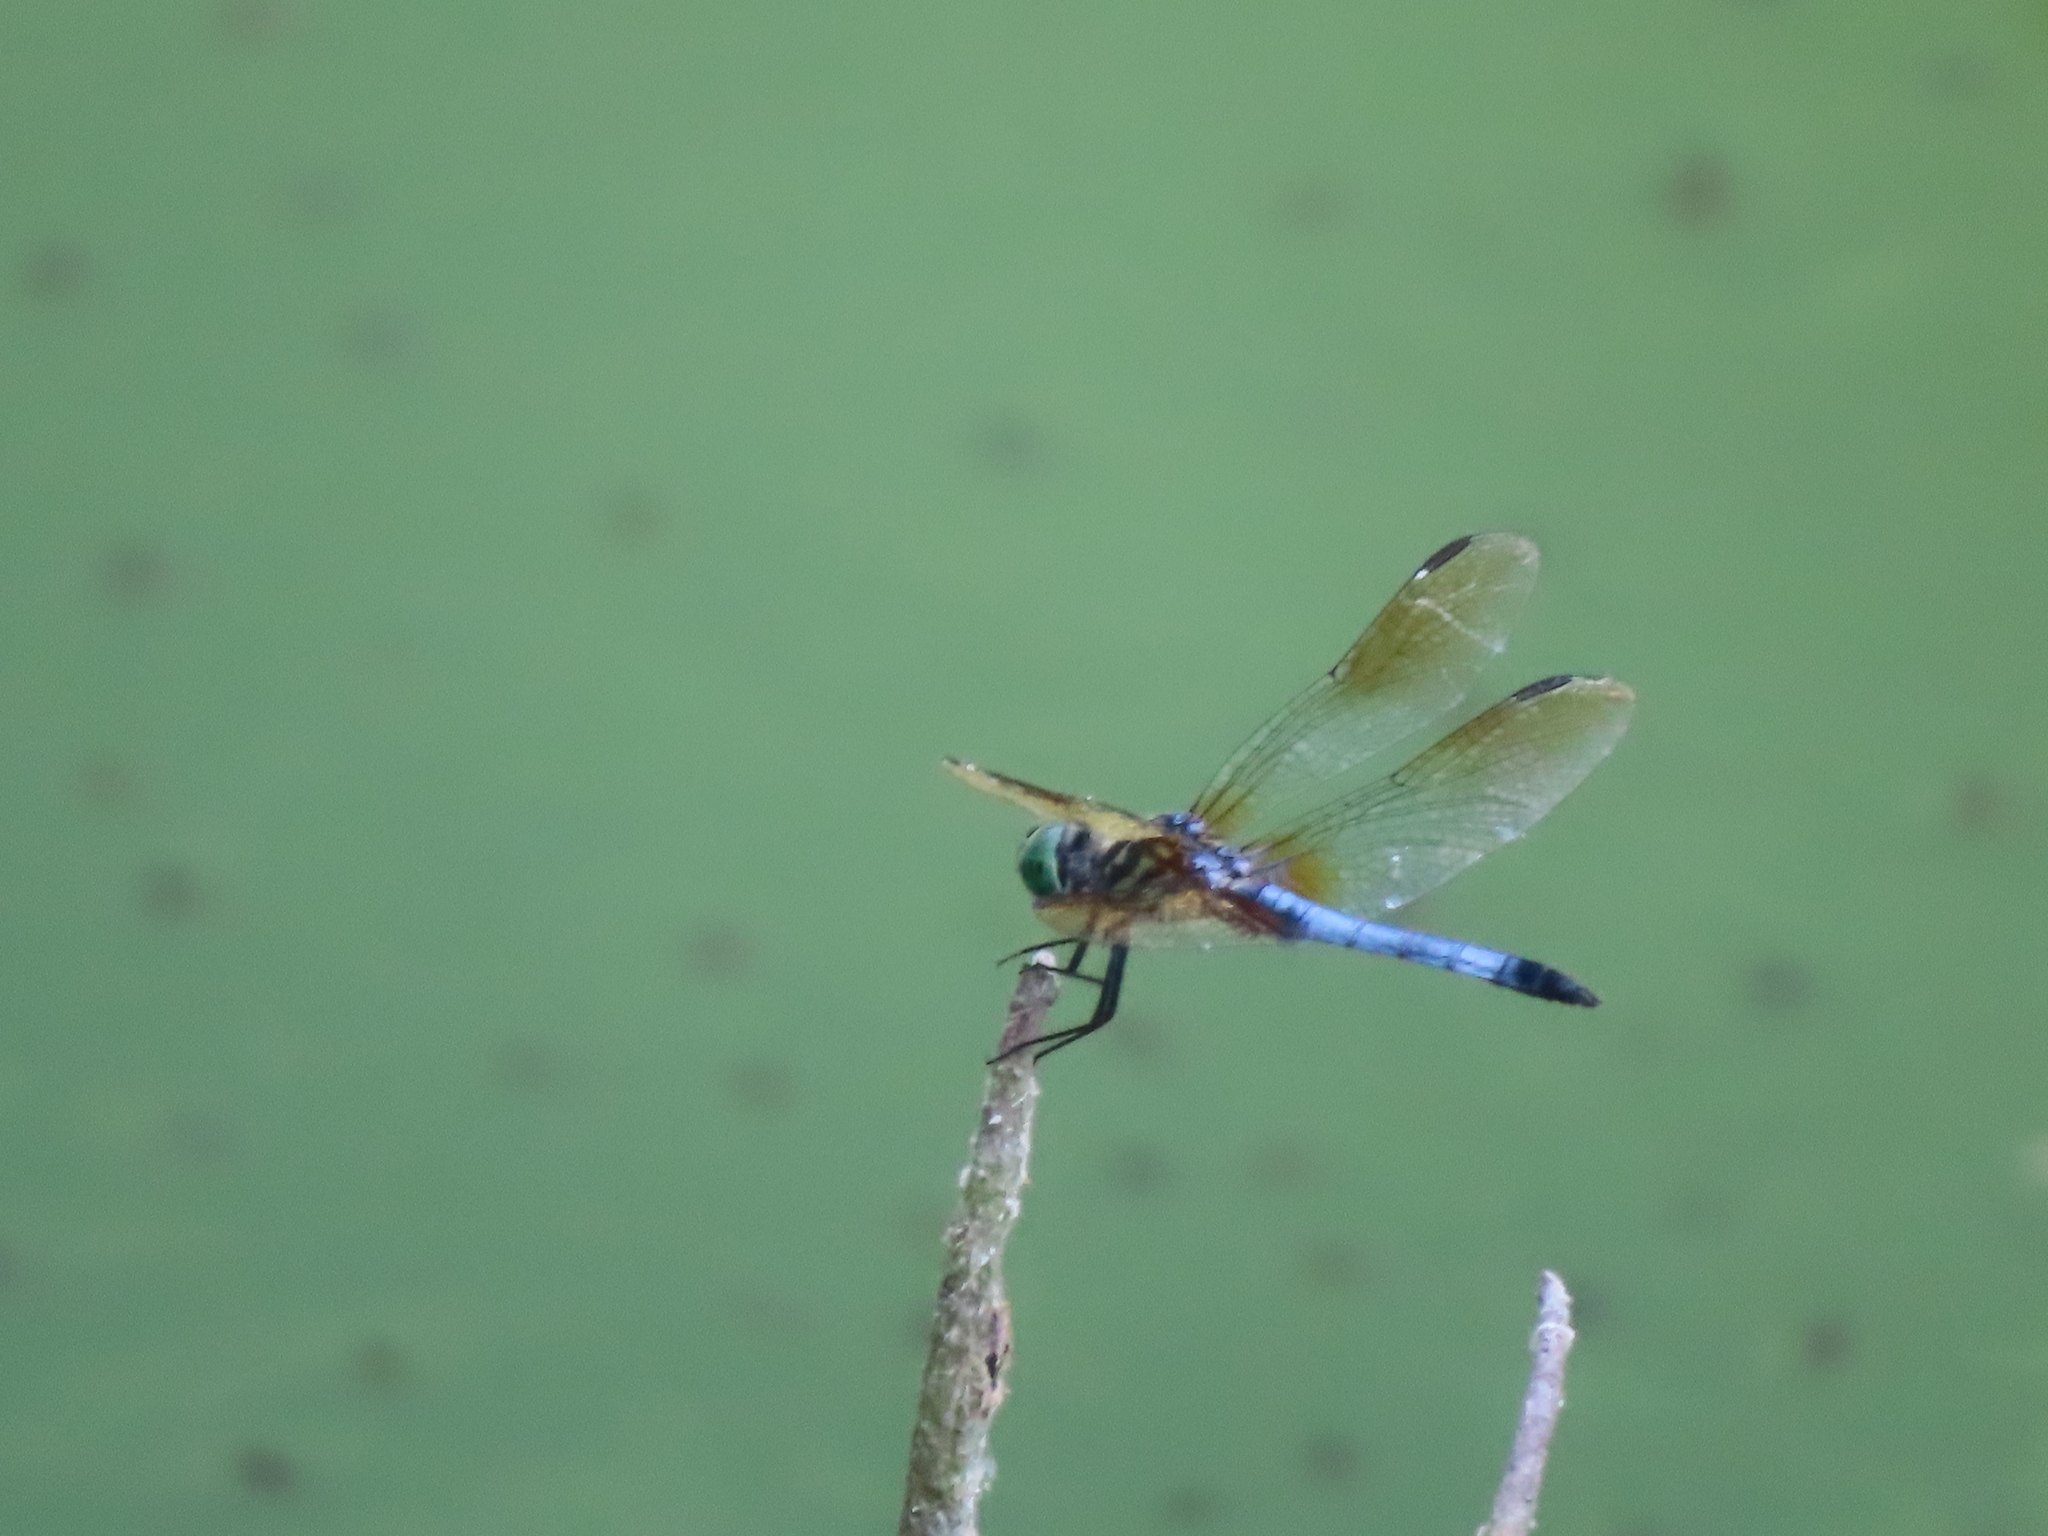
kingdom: Animalia
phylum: Arthropoda
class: Insecta
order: Odonata
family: Libellulidae
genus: Pachydiplax
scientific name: Pachydiplax longipennis
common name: Blue dasher
